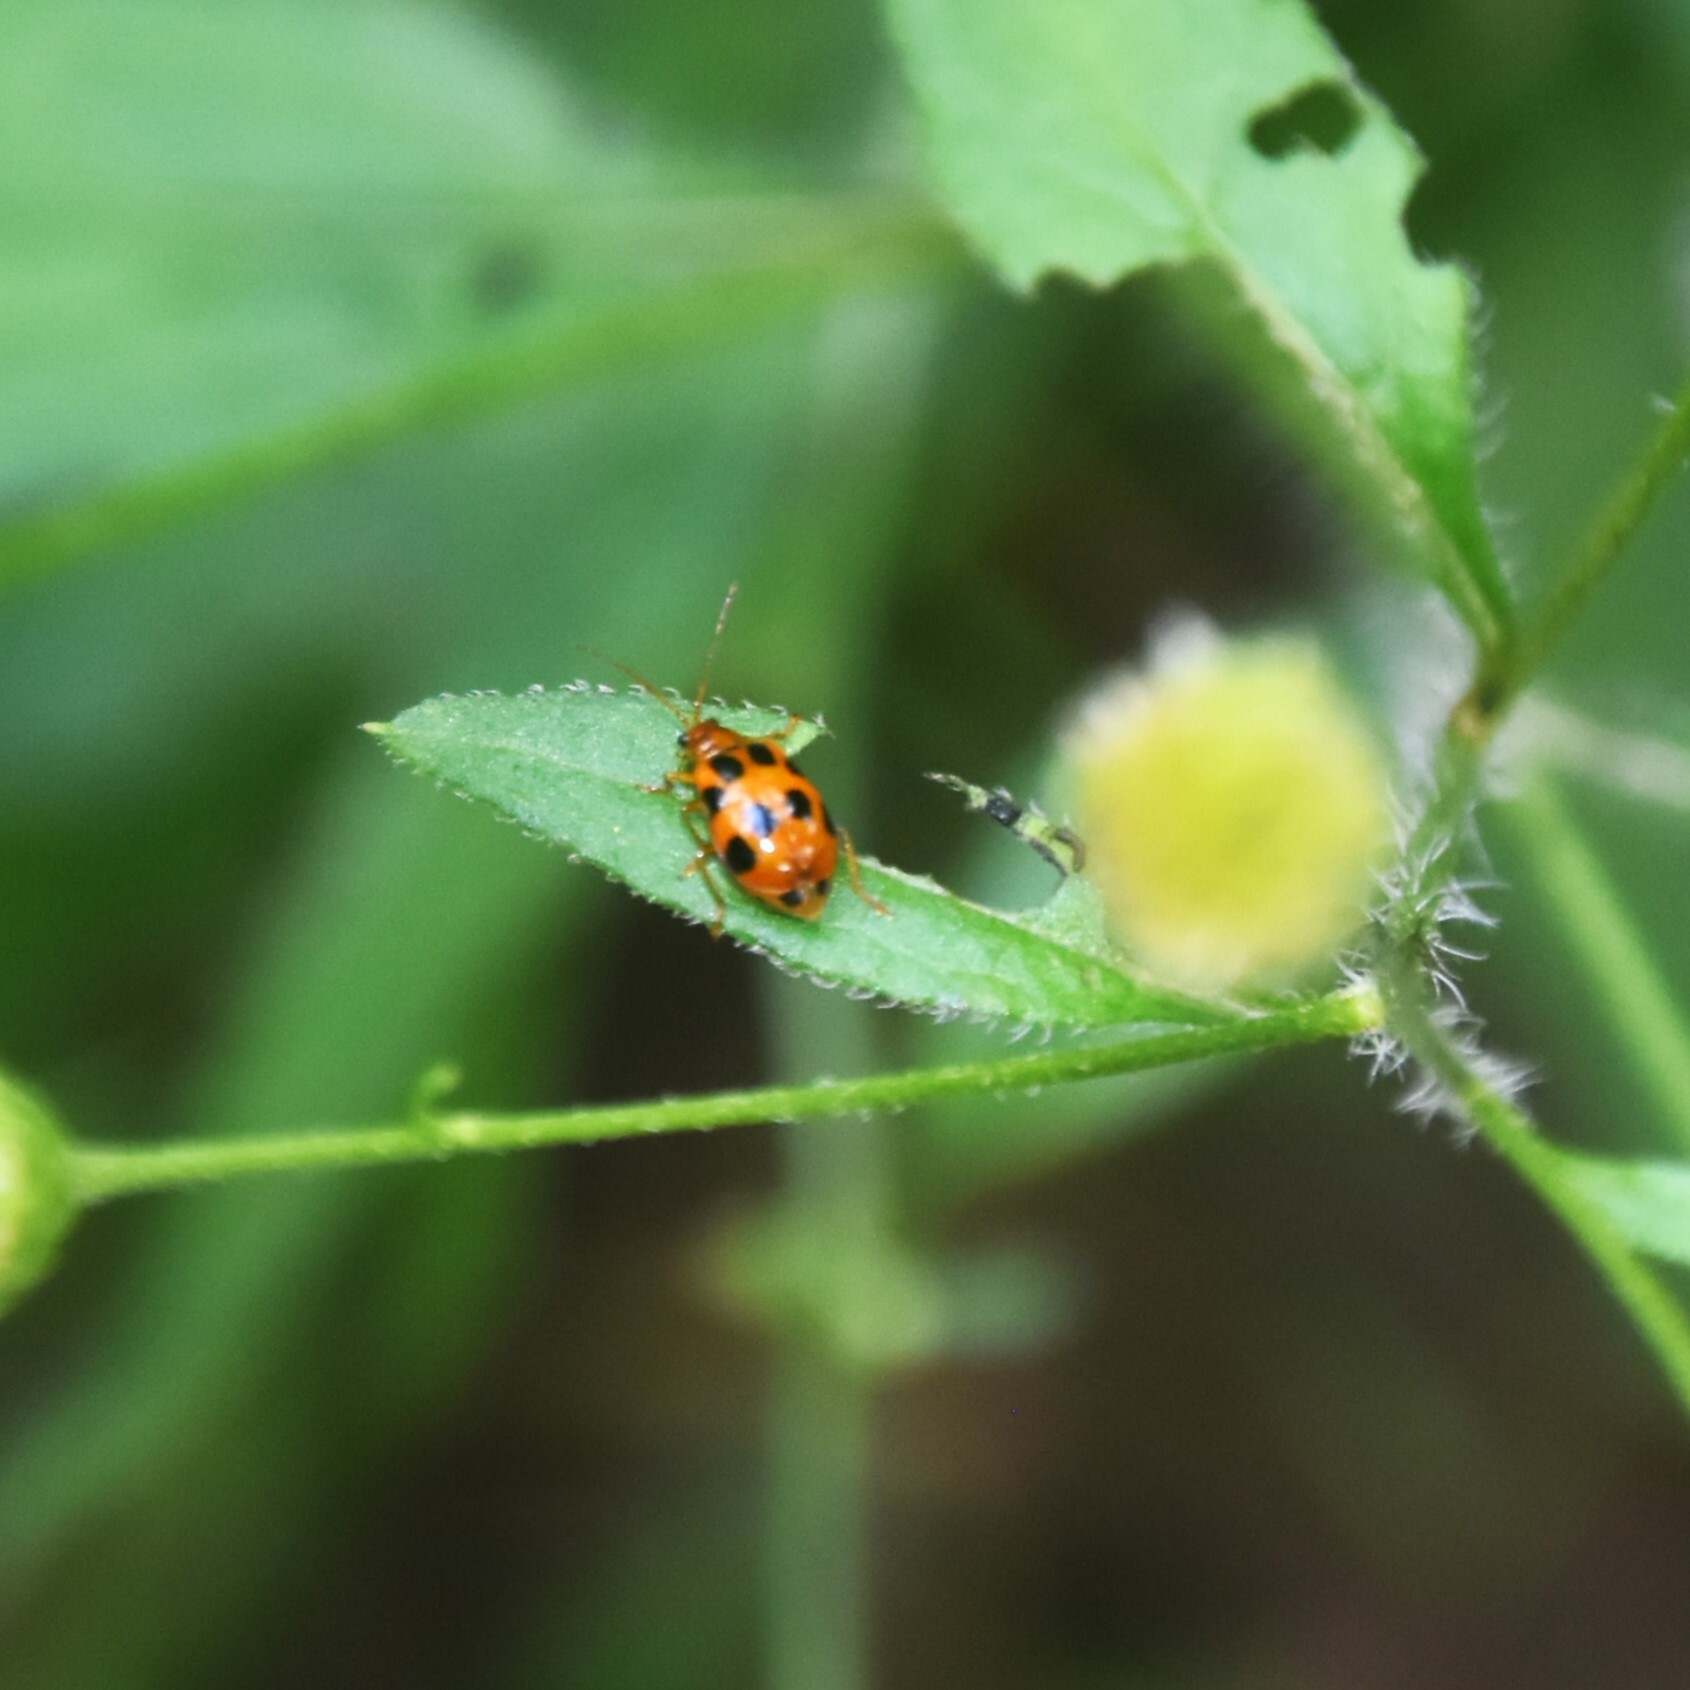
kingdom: Animalia
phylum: Arthropoda
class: Insecta
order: Coleoptera
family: Chrysomelidae
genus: Paridea
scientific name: Paridea
